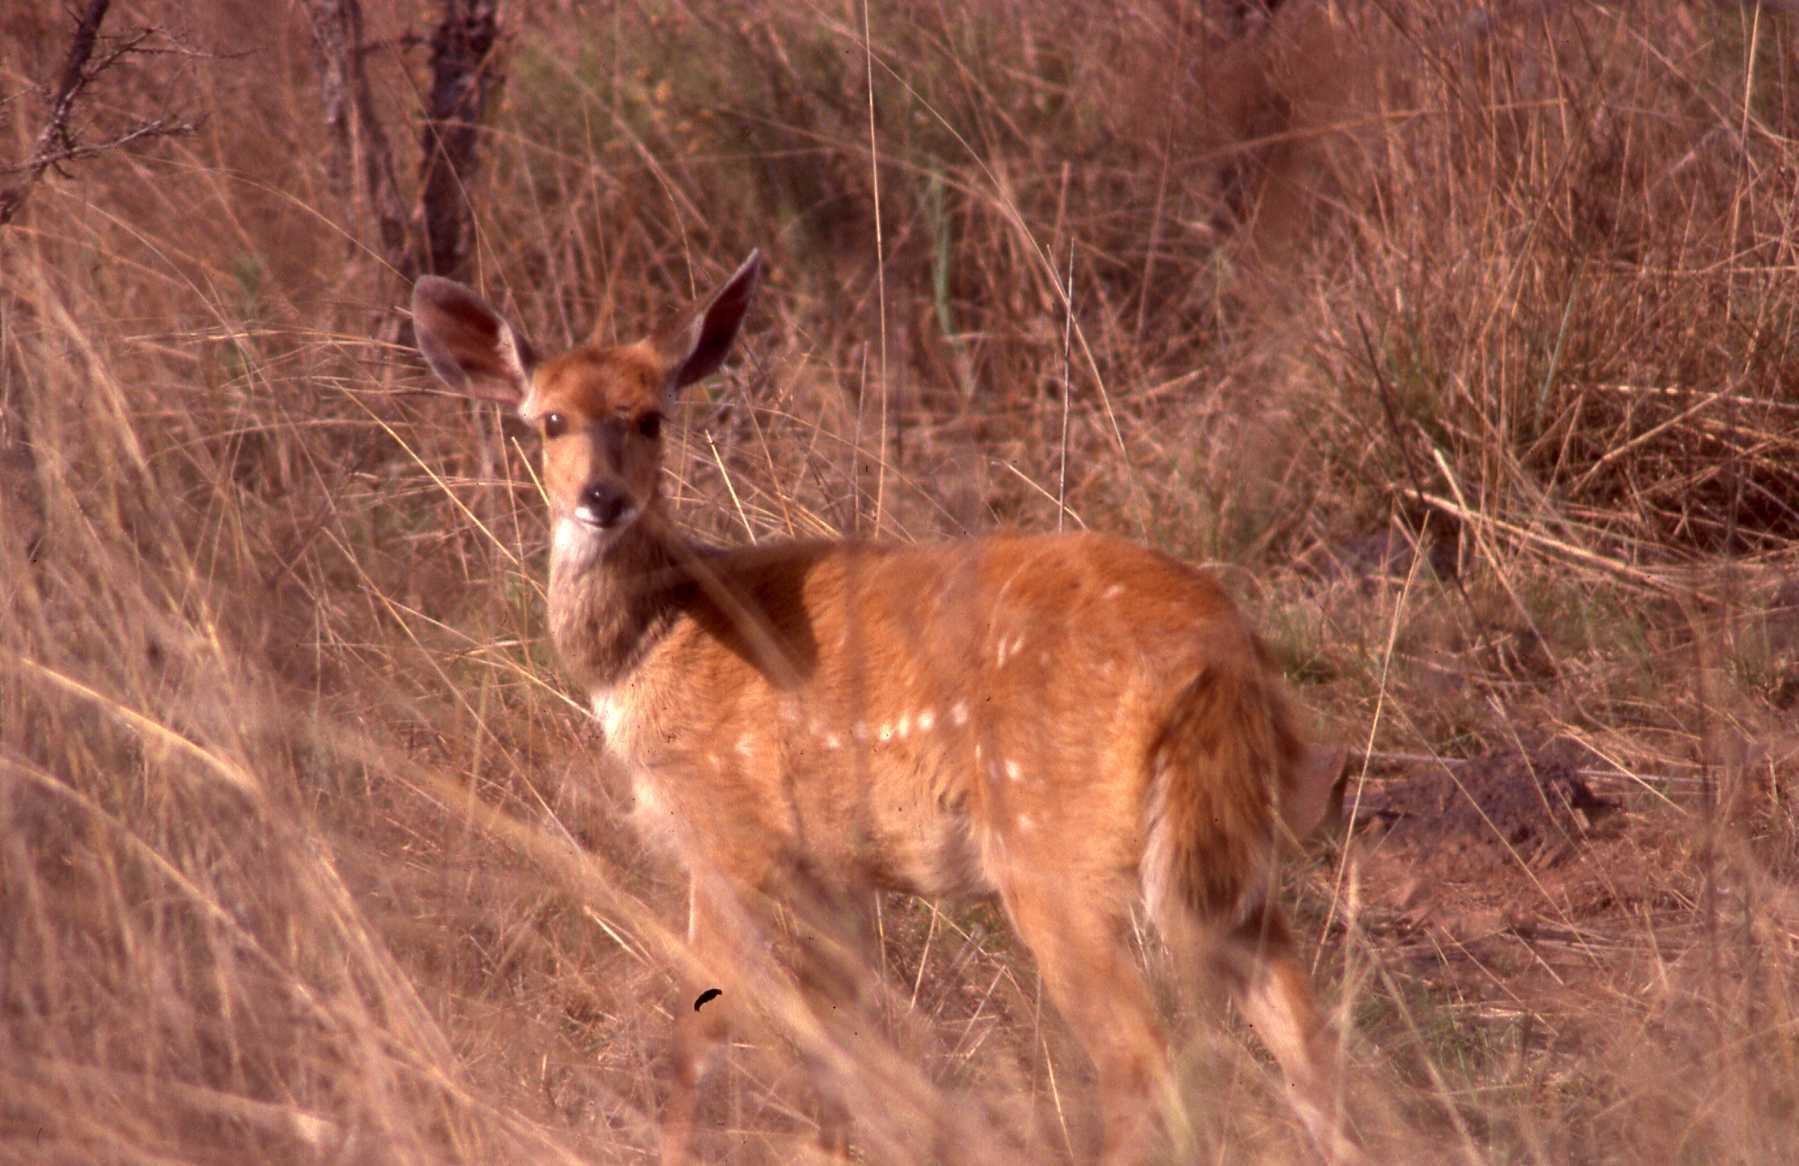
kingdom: Animalia
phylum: Chordata
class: Mammalia
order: Artiodactyla
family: Bovidae
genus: Tragelaphus
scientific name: Tragelaphus scriptus
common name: Bushbuck
